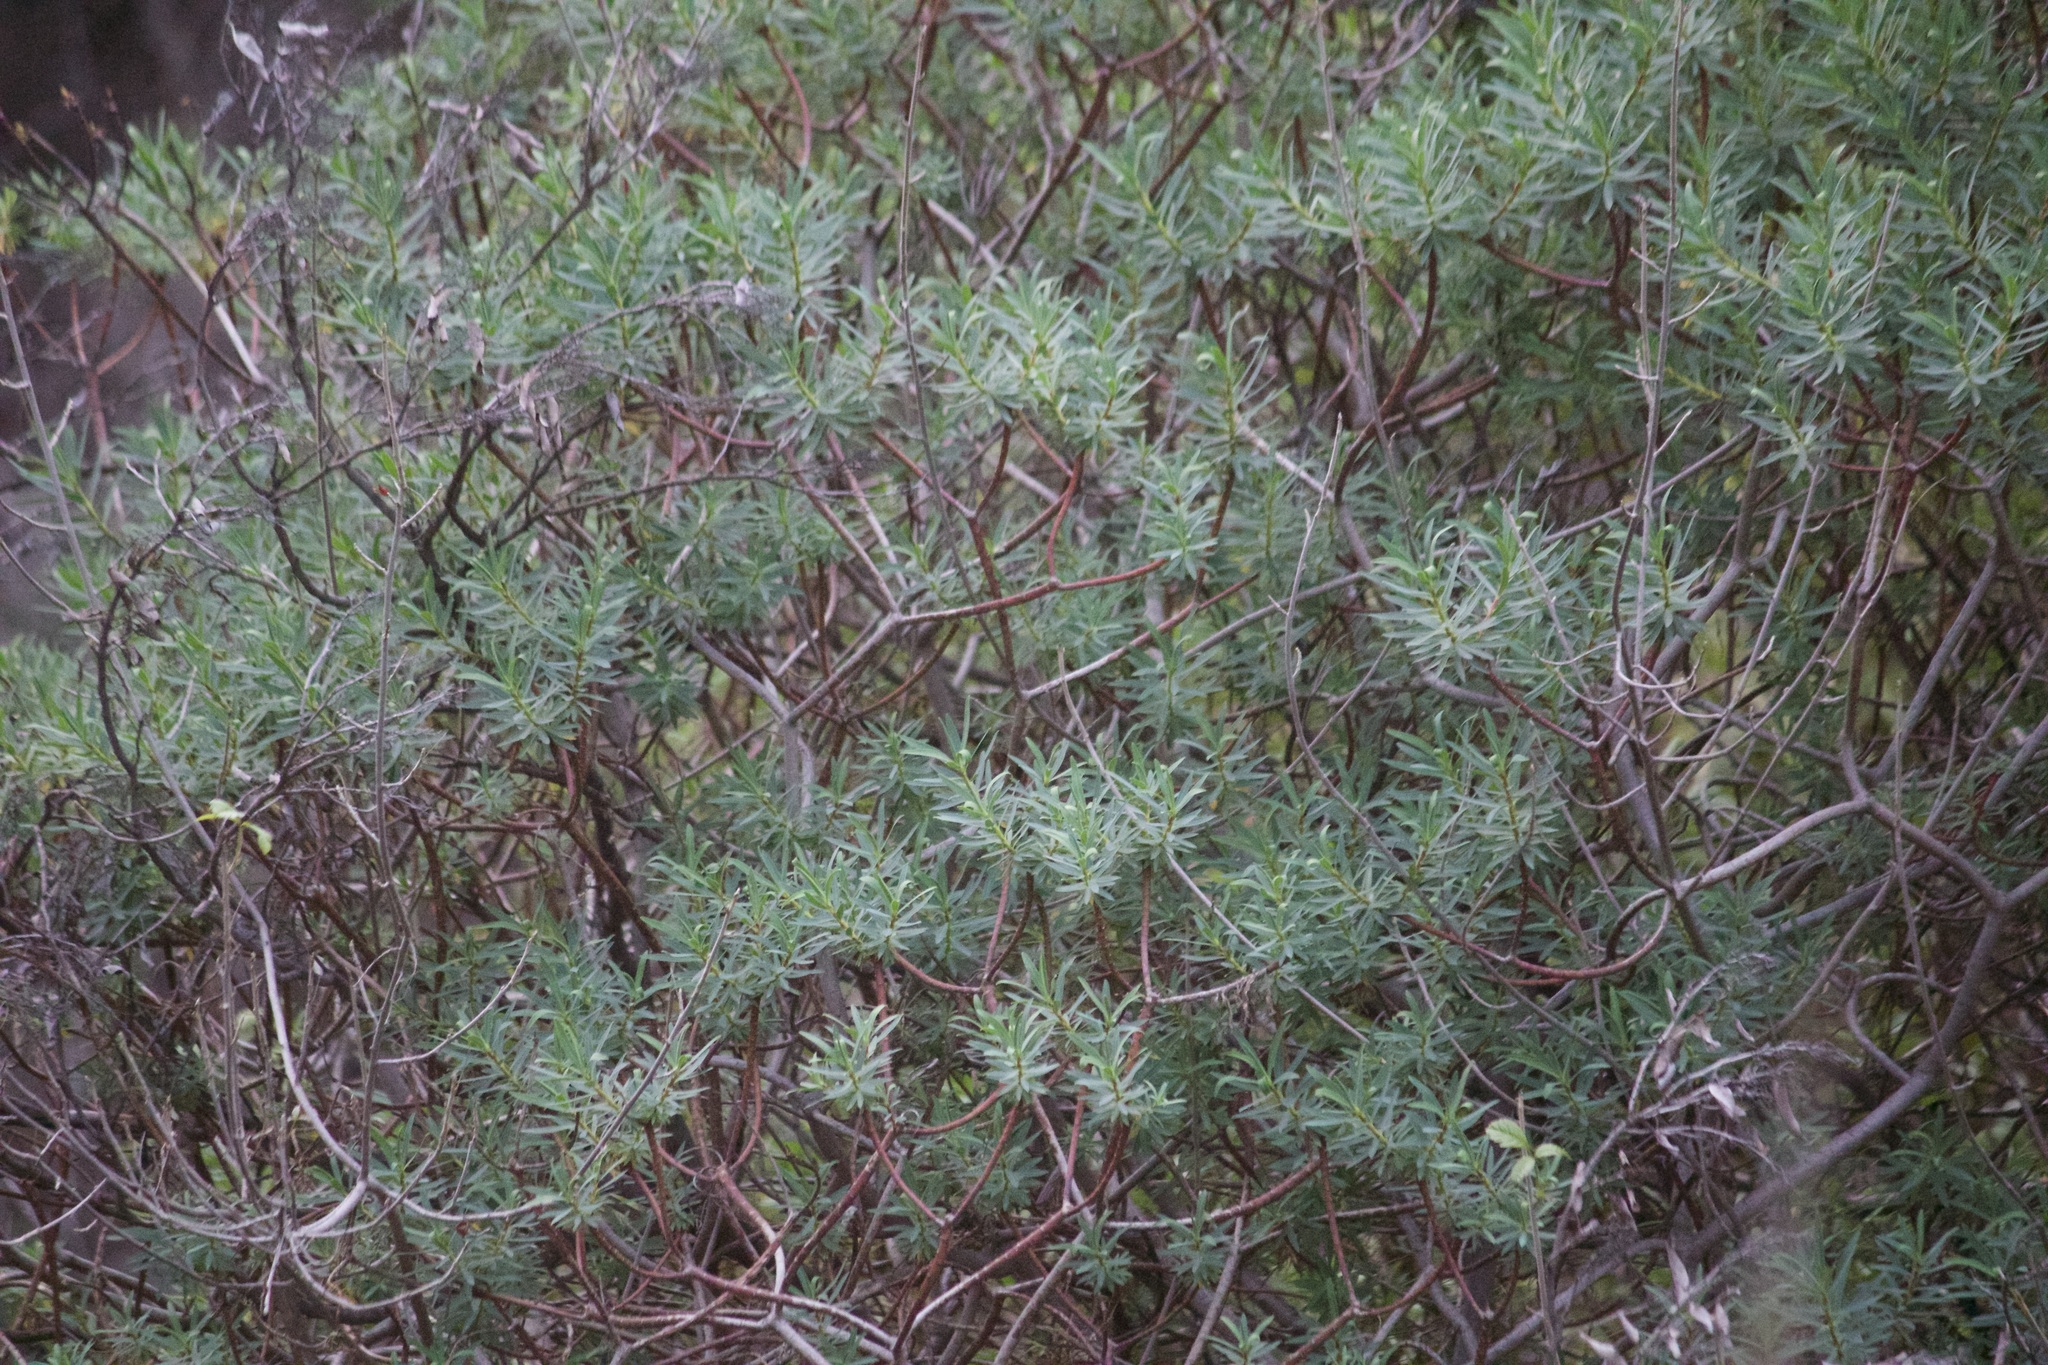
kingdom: Plantae
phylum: Tracheophyta
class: Magnoliopsida
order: Malpighiales
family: Euphorbiaceae
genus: Euphorbia
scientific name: Euphorbia dendroides
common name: Tree spurge
